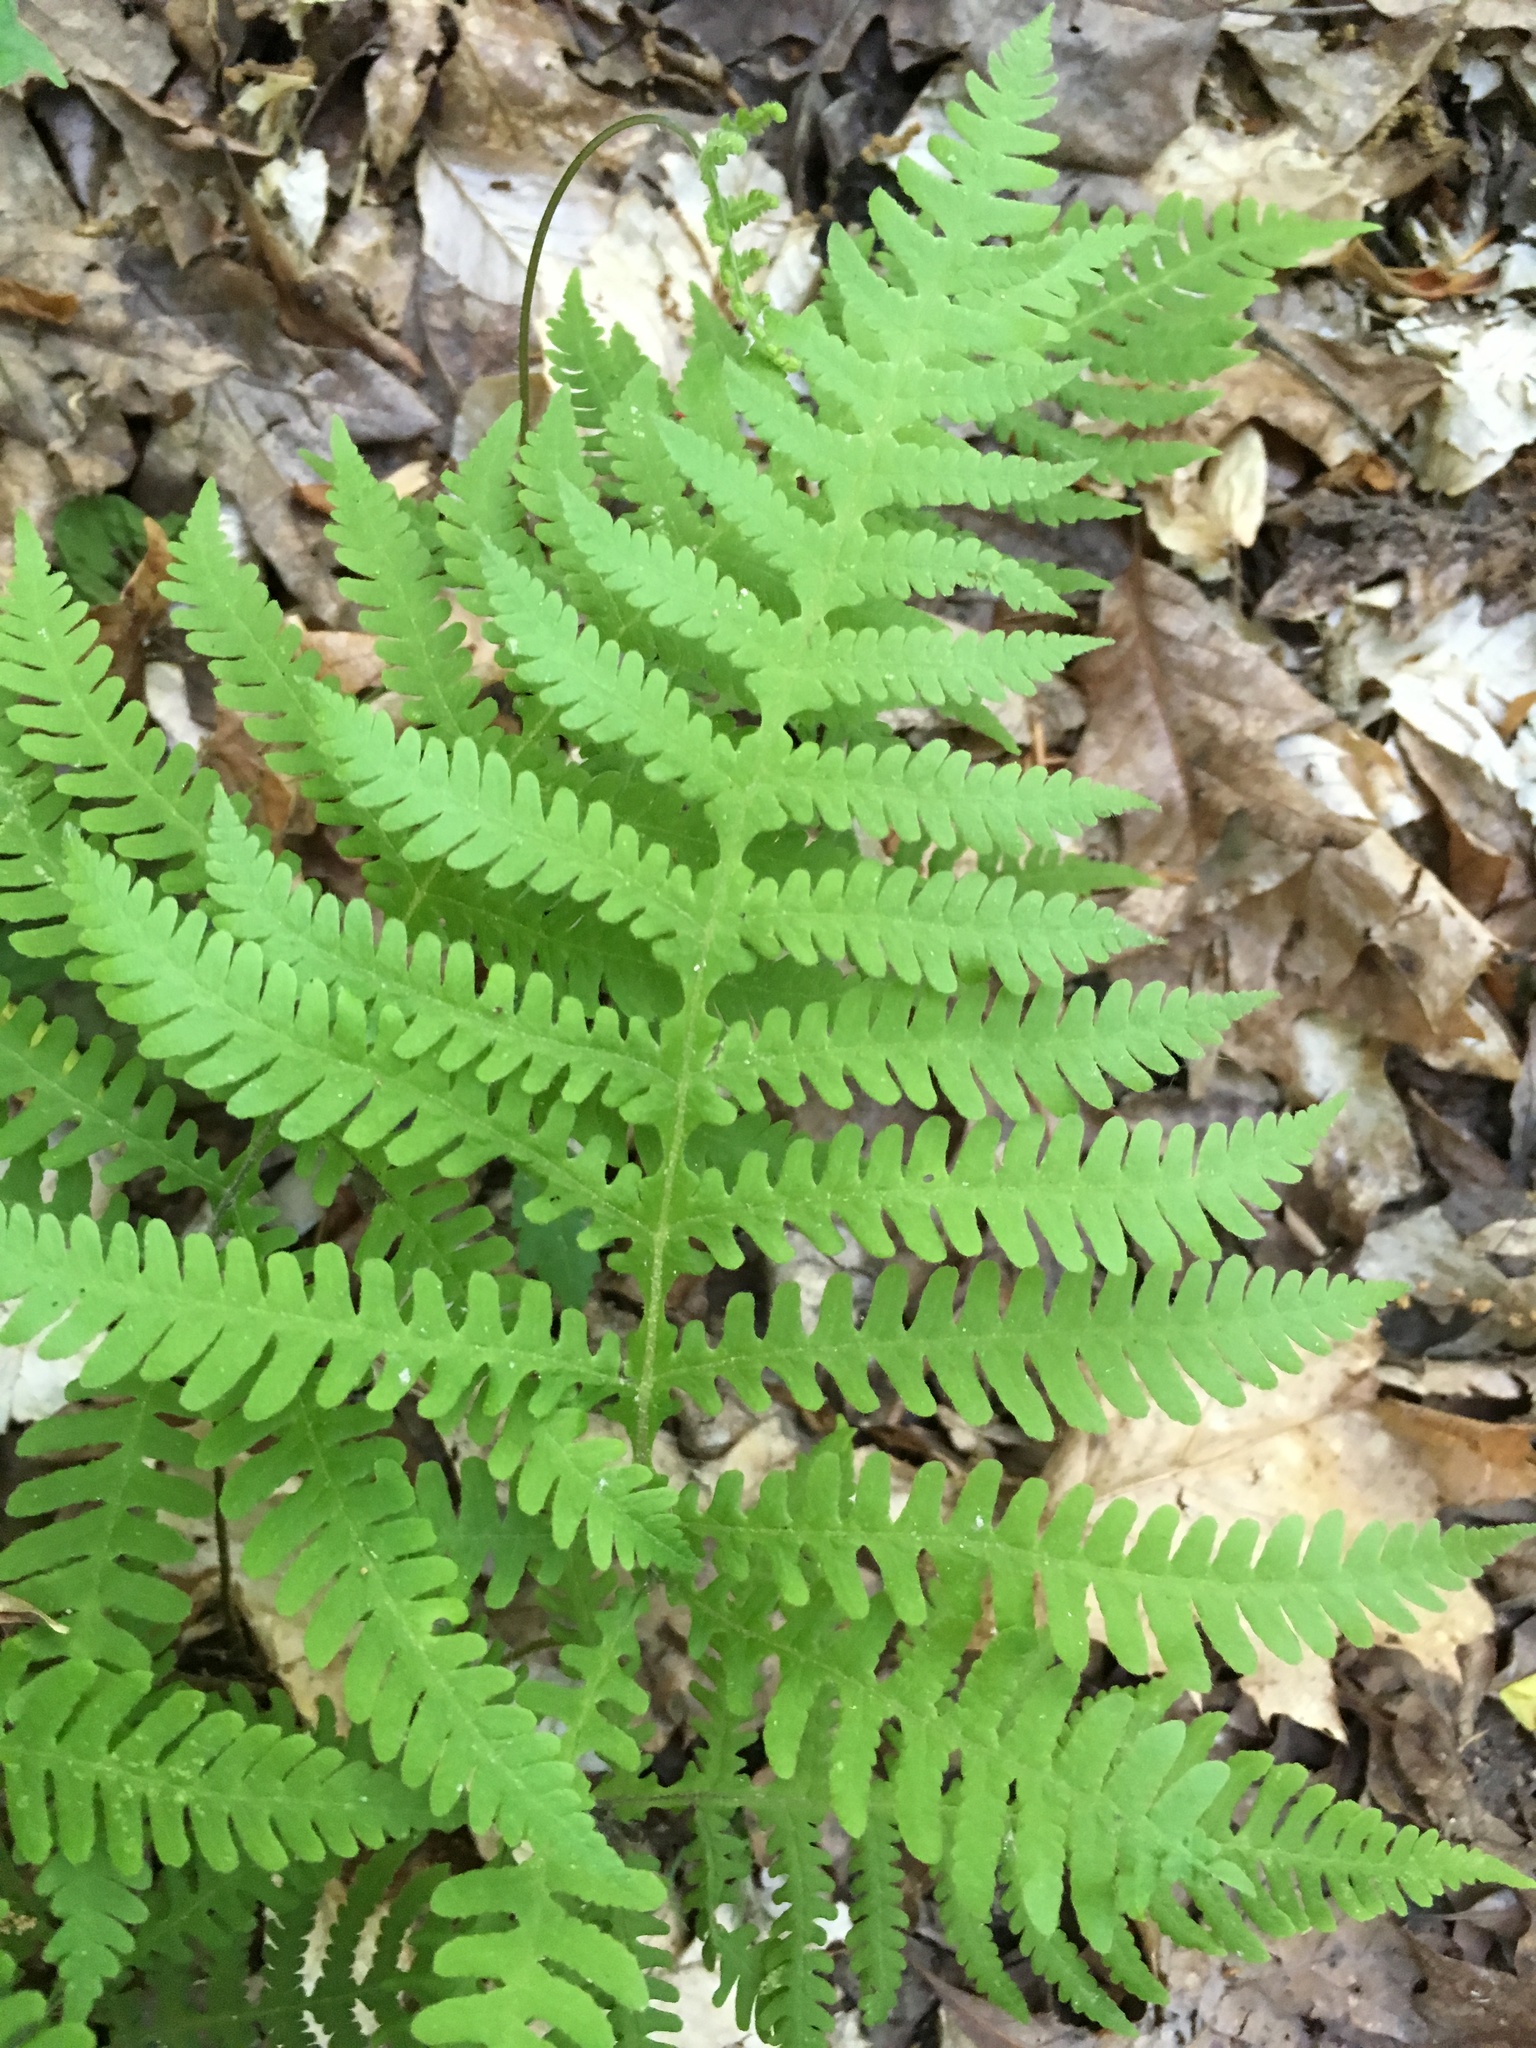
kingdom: Plantae
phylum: Tracheophyta
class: Polypodiopsida
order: Polypodiales
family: Thelypteridaceae
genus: Phegopteris
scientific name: Phegopteris hexagonoptera
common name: Broad beech fern
